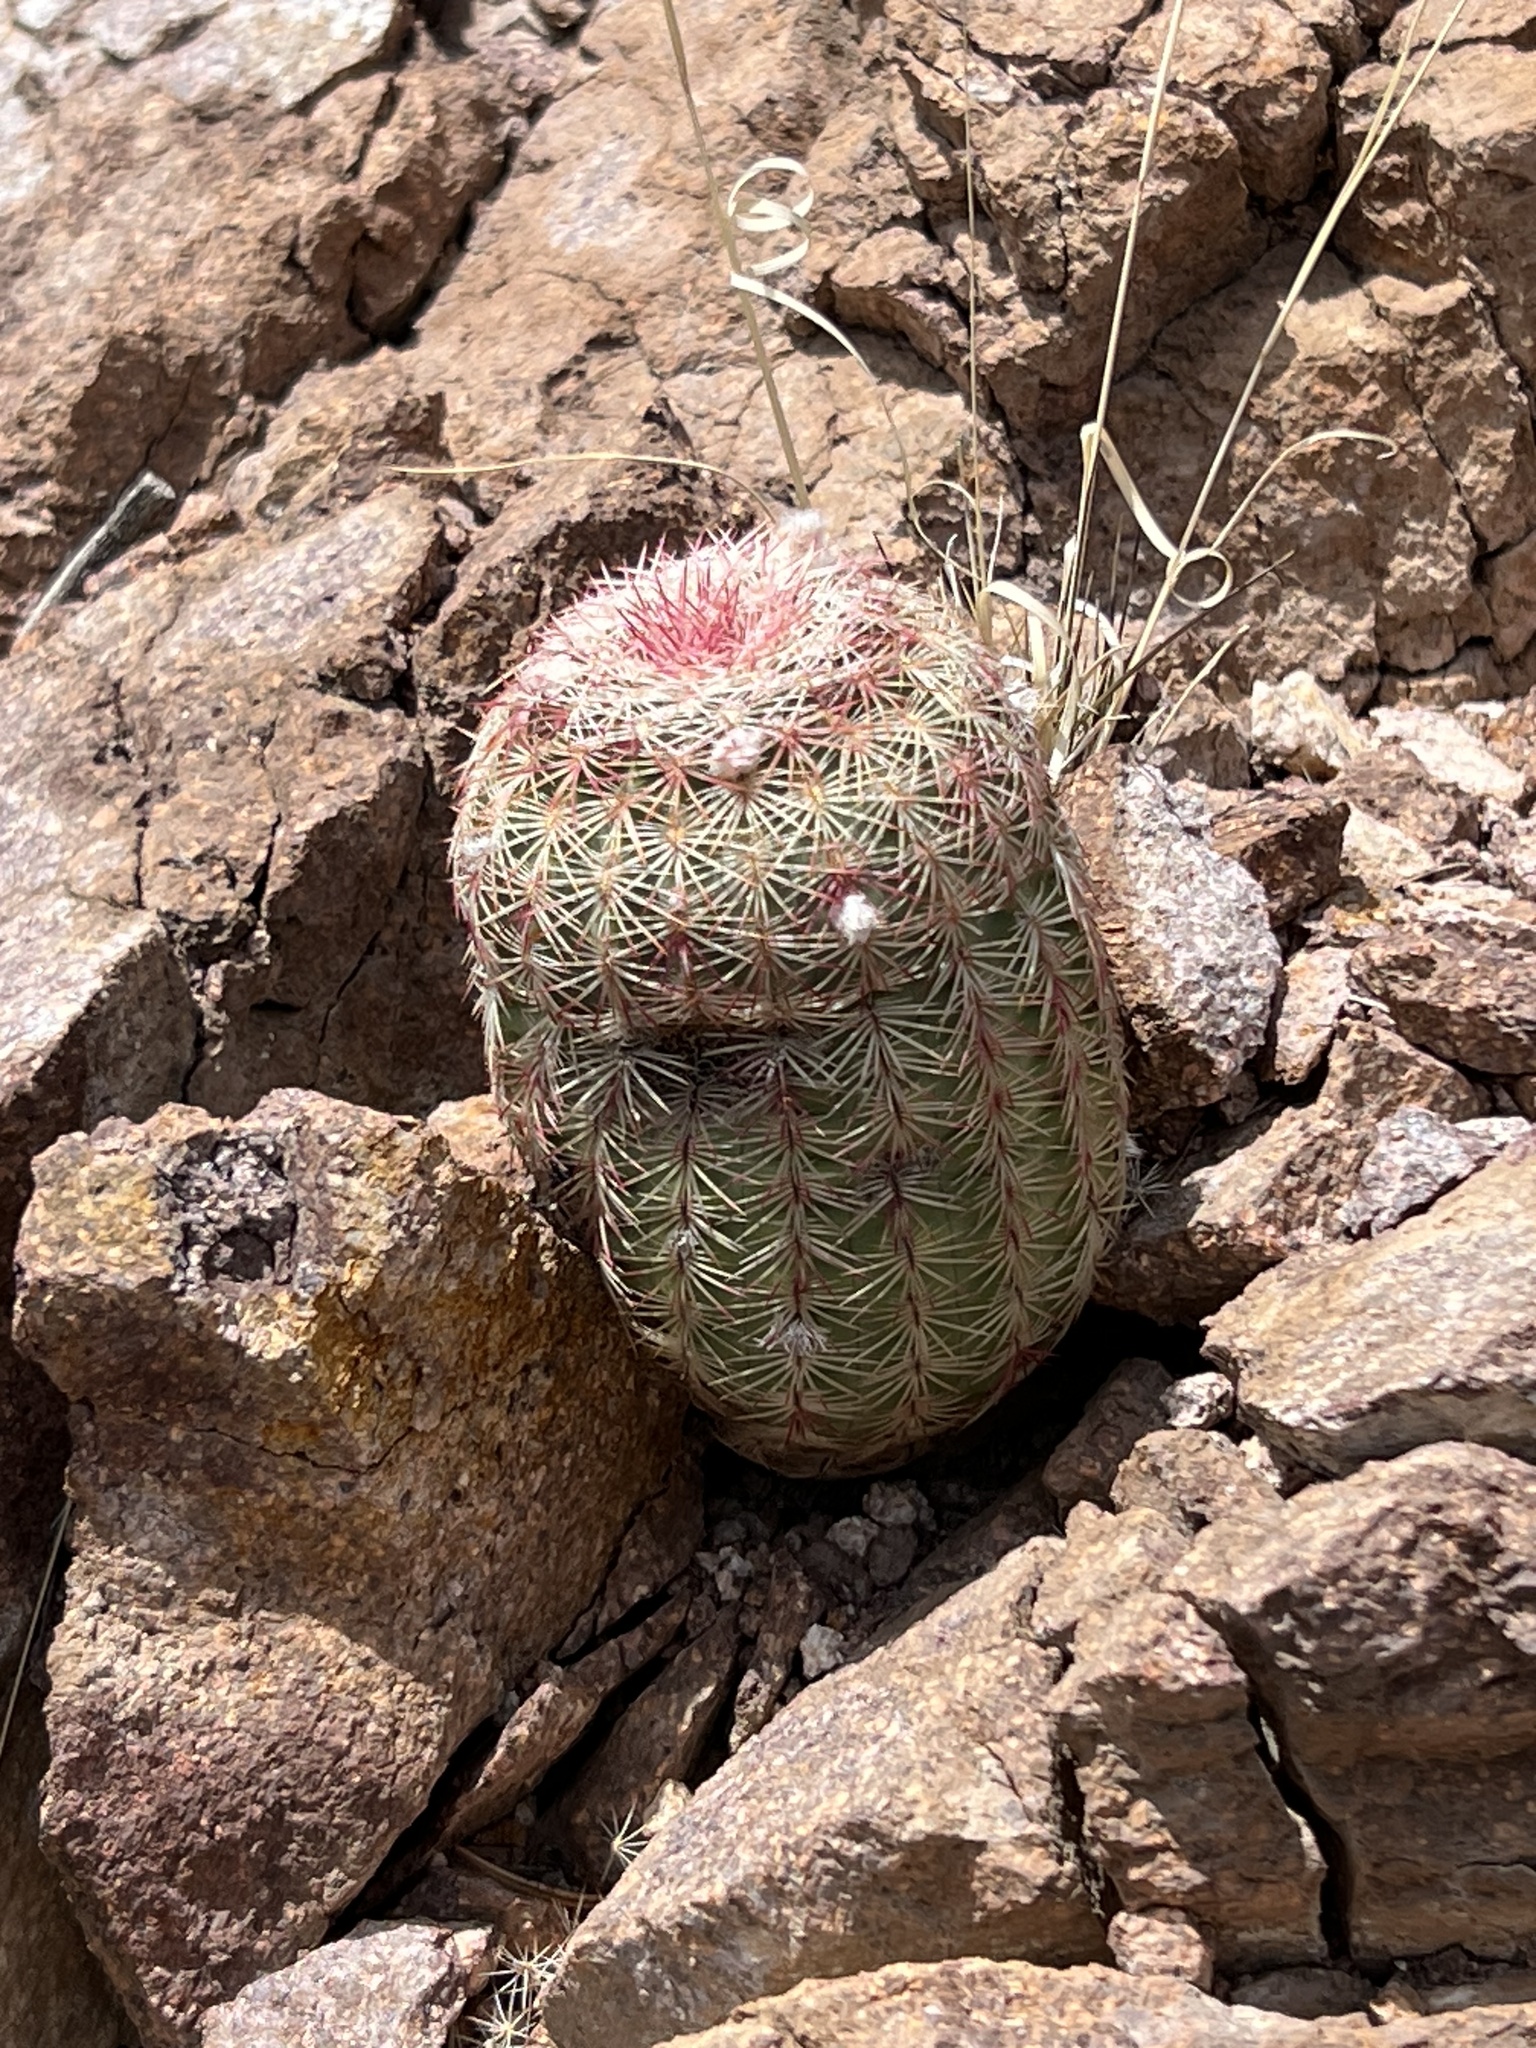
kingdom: Plantae
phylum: Tracheophyta
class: Magnoliopsida
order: Caryophyllales
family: Cactaceae
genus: Echinocereus
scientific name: Echinocereus rigidissimus
